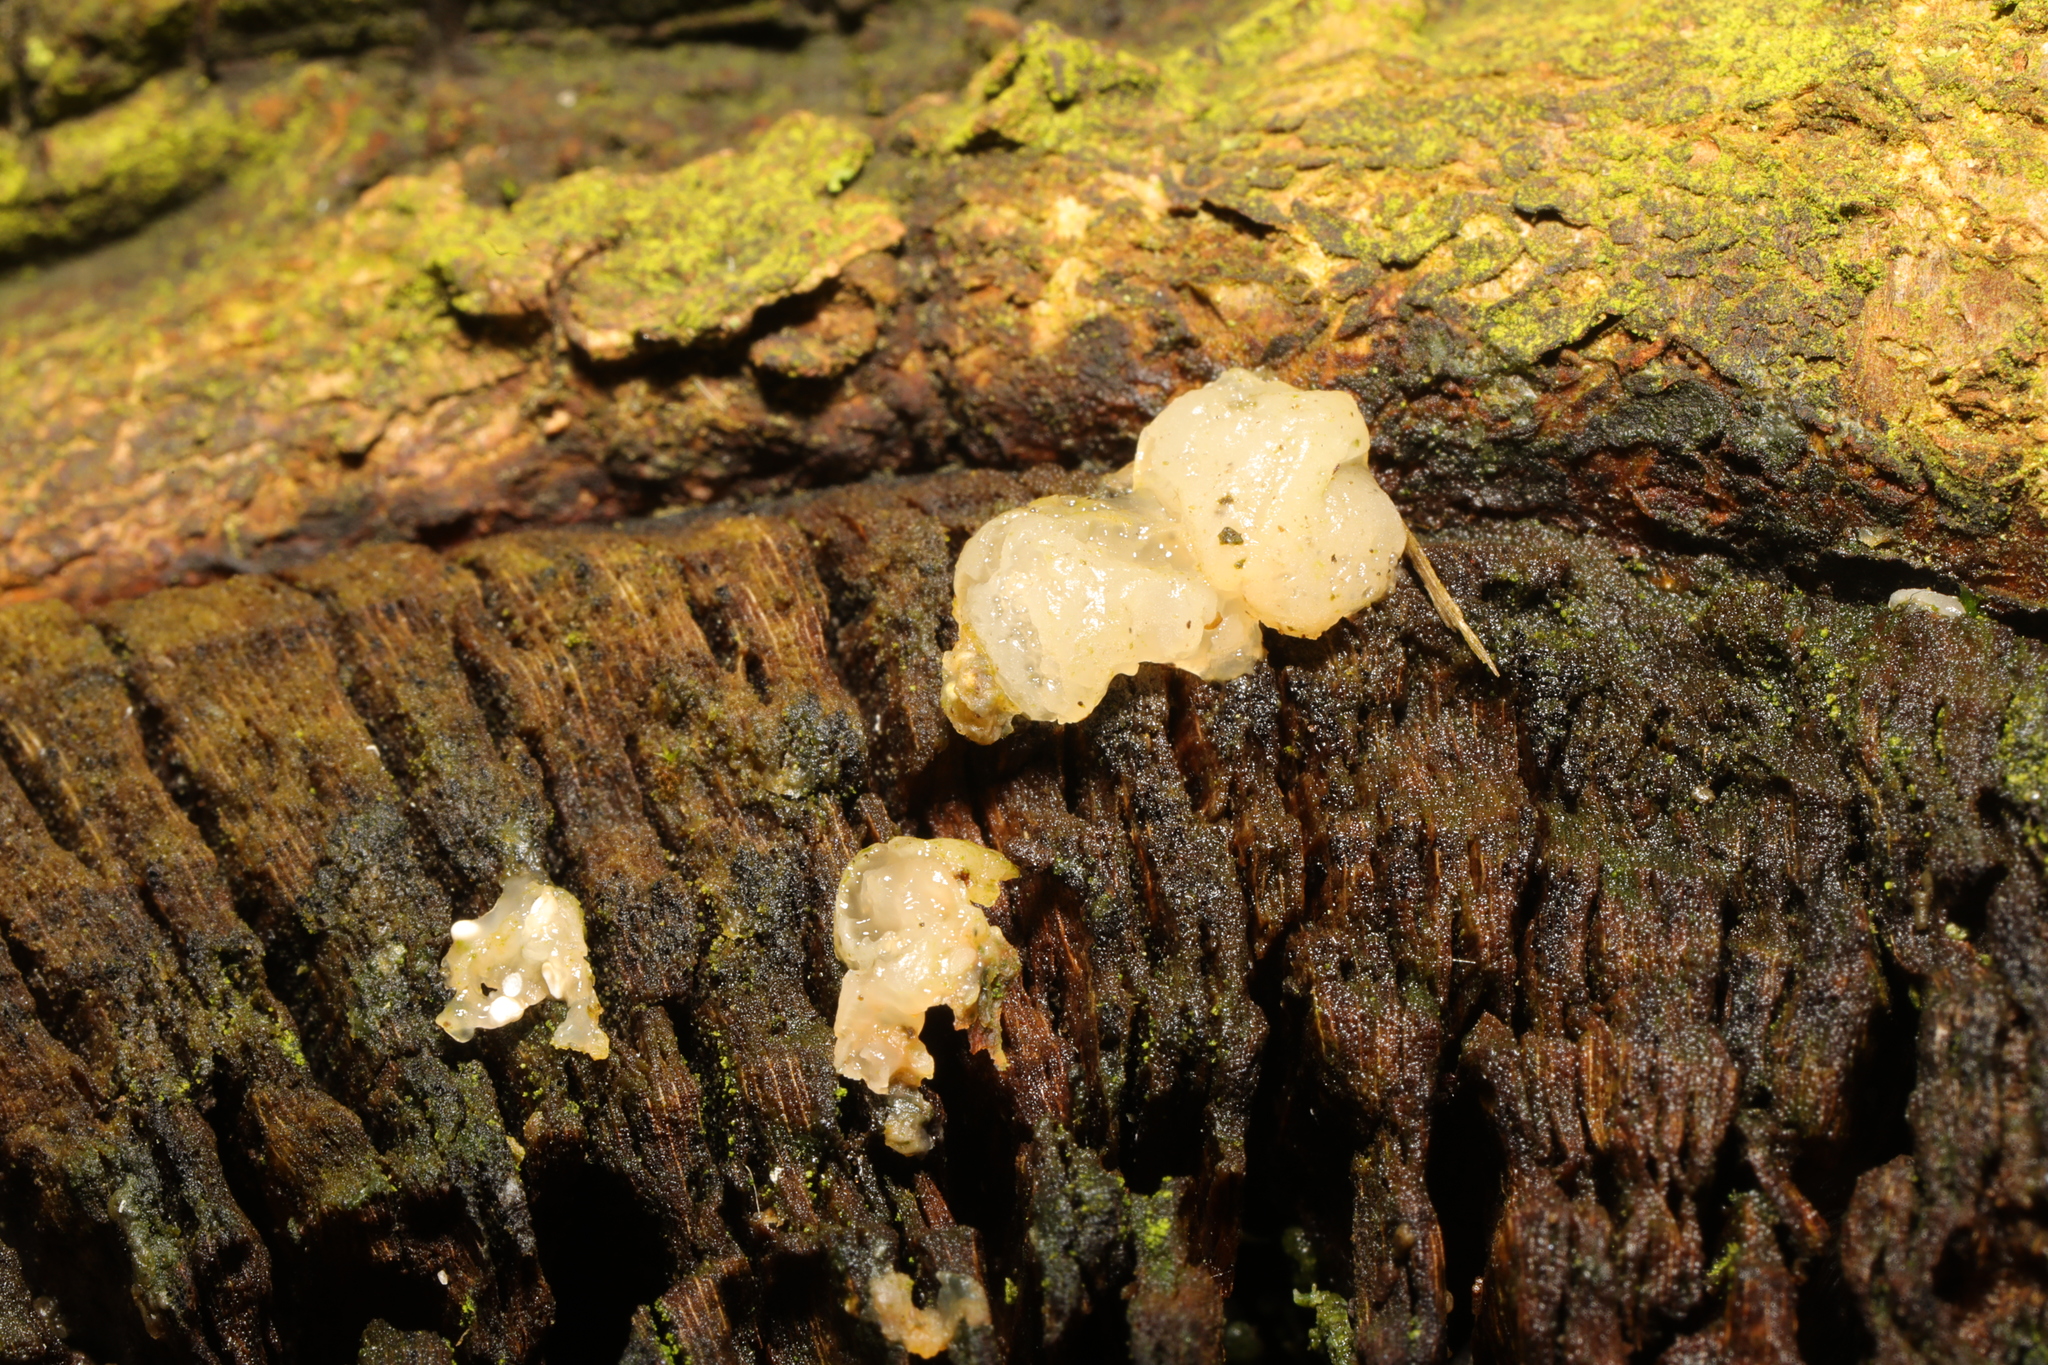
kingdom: Fungi
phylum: Basidiomycota
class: Agaricomycetes
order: Auriculariales
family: Hyaloriaceae
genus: Myxarium
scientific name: Myxarium nucleatum
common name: Crystal brain fungus
